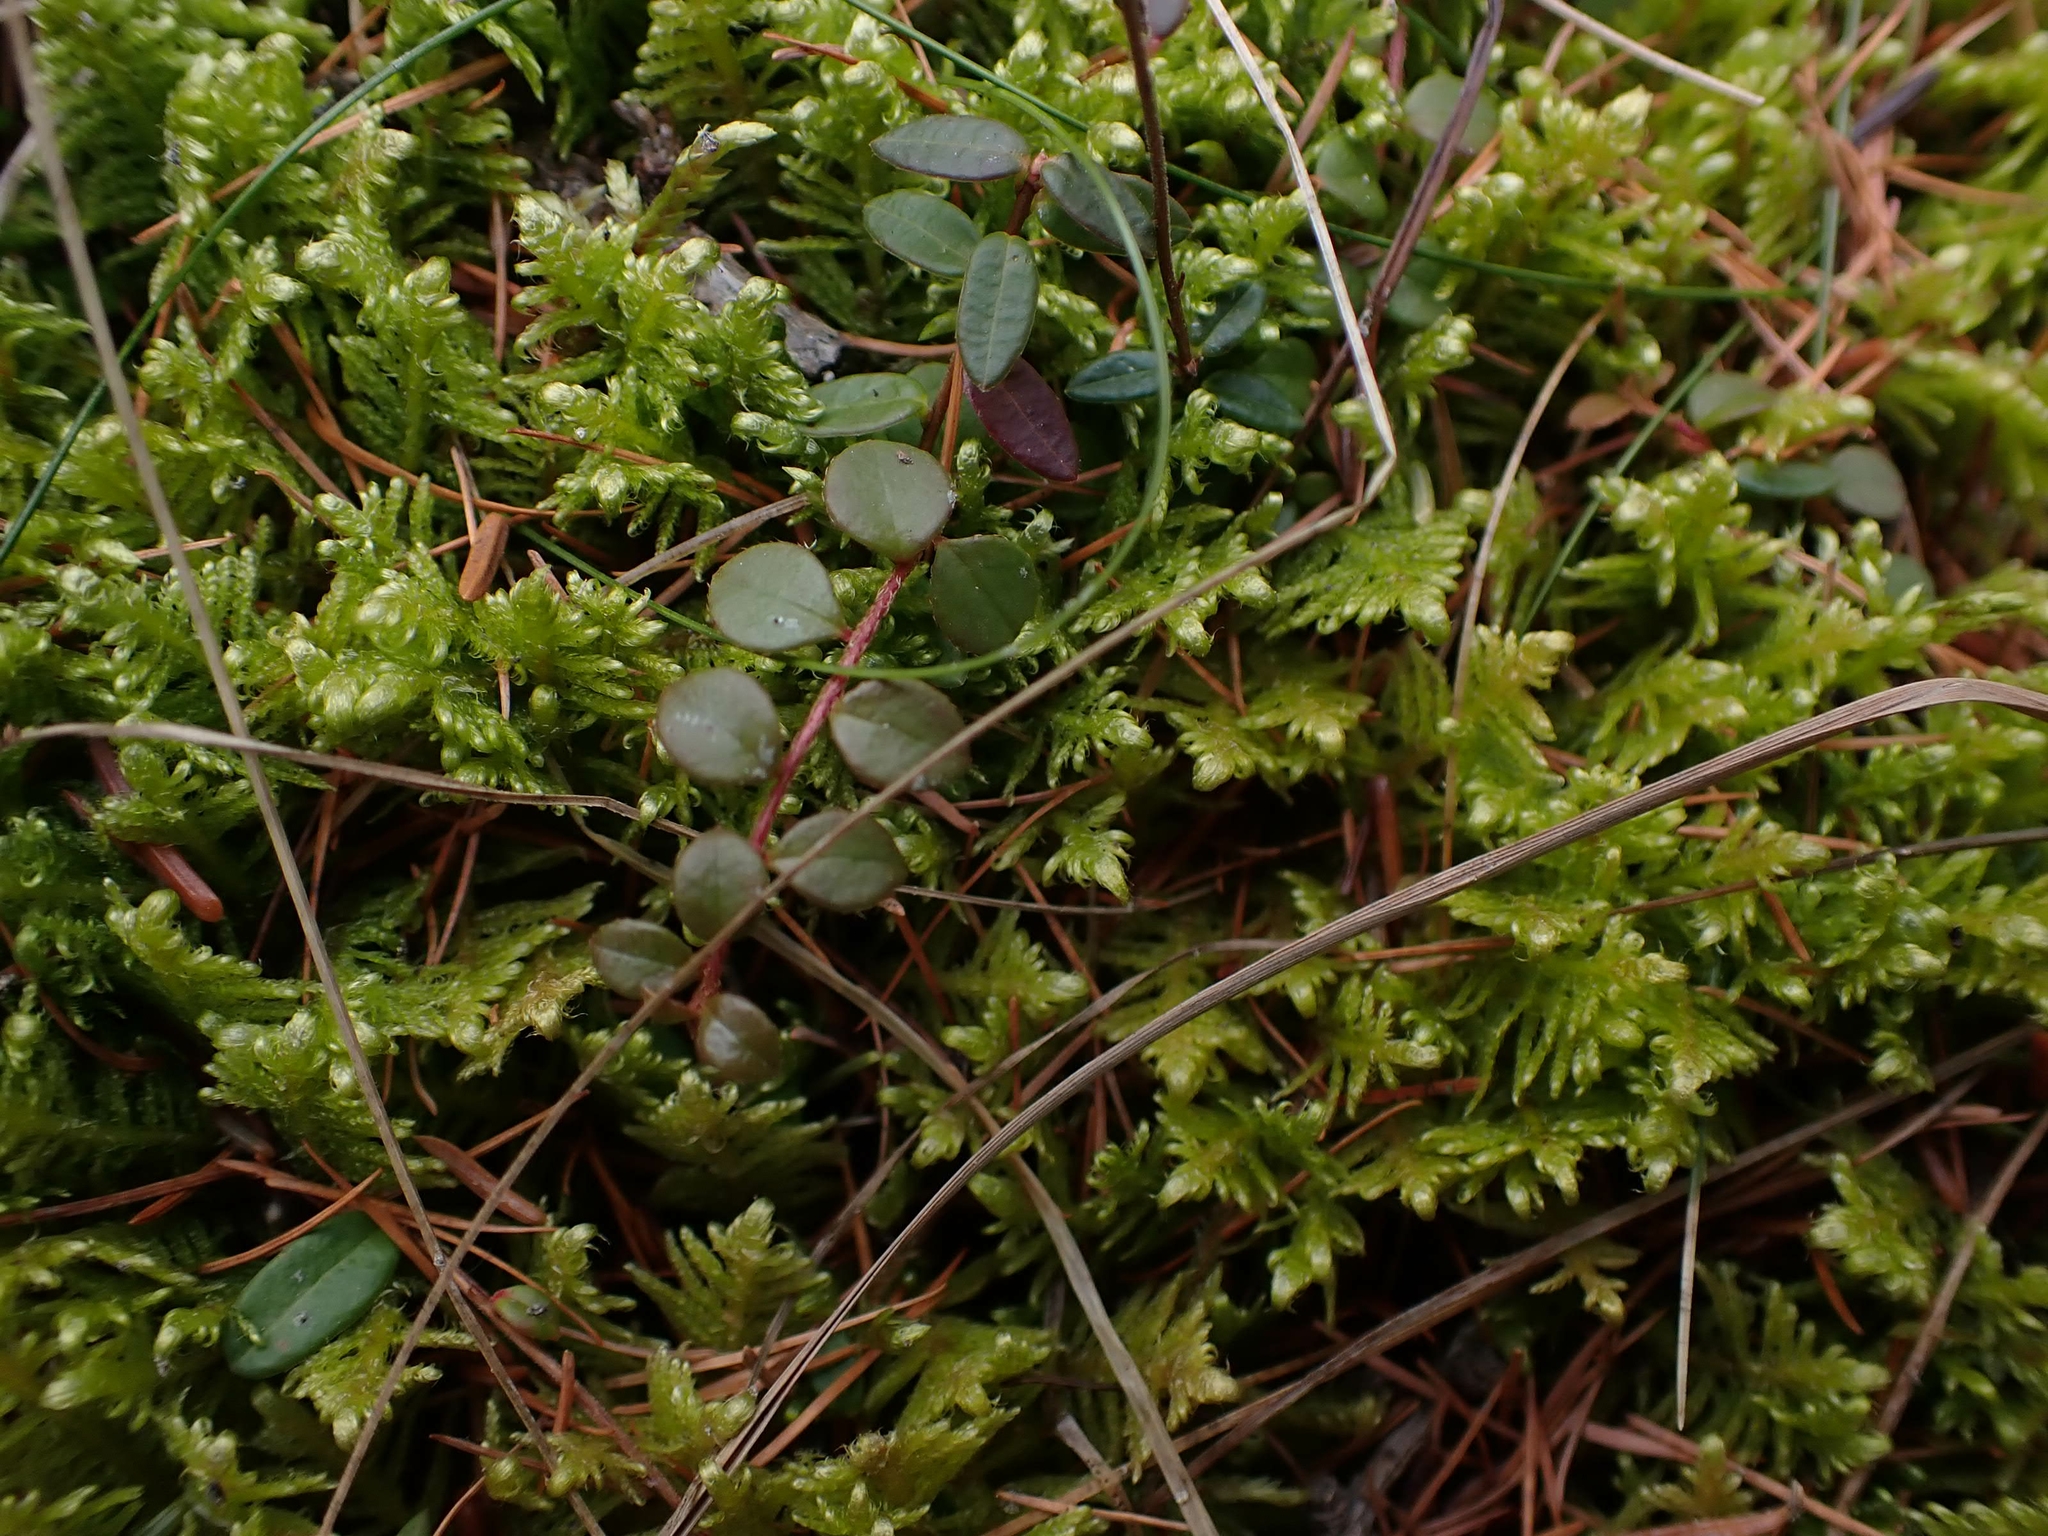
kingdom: Plantae
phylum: Tracheophyta
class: Magnoliopsida
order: Ericales
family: Ericaceae
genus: Gaultheria
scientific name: Gaultheria hispidula
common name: Cancer wintergreen
